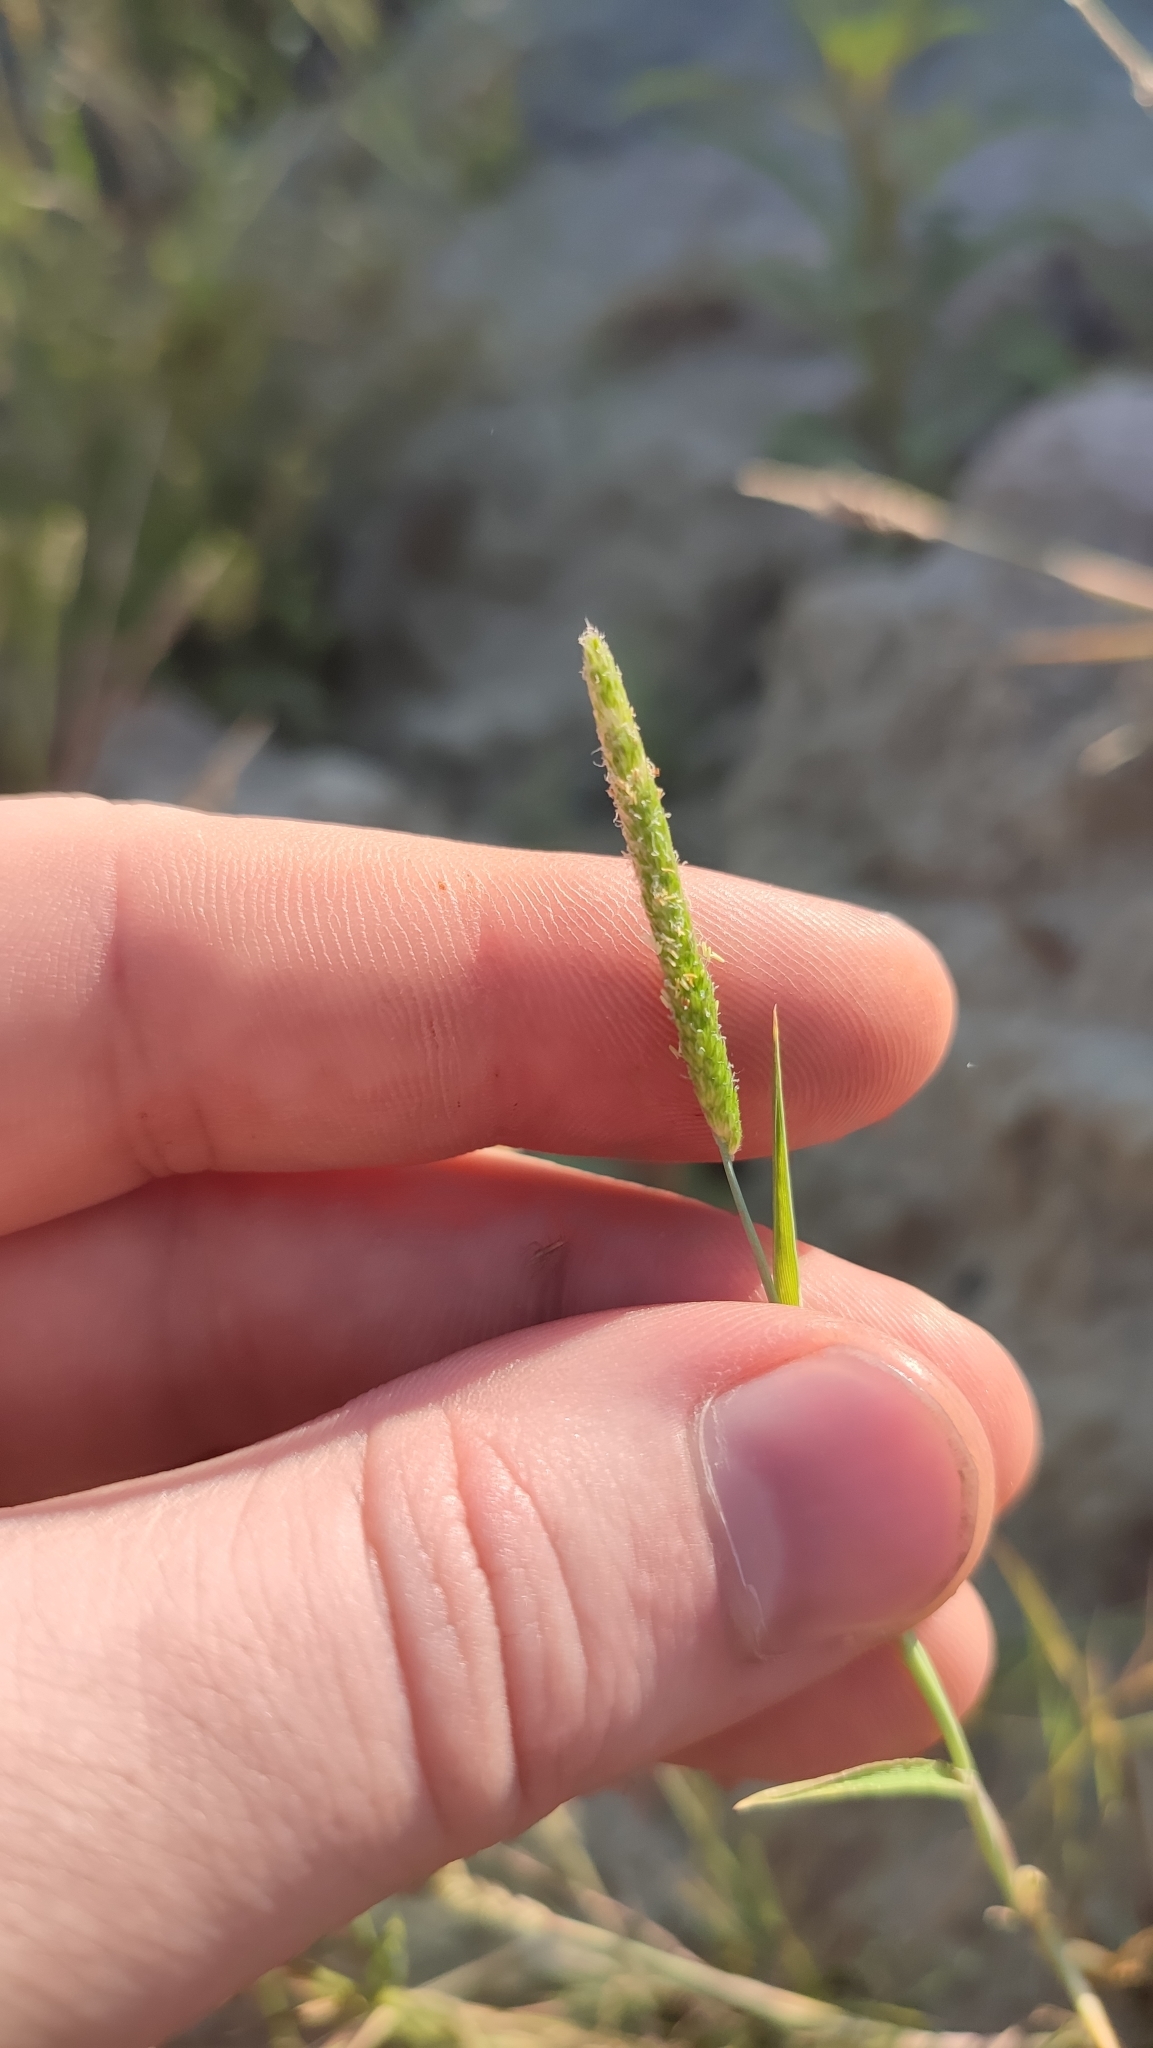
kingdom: Plantae
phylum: Tracheophyta
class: Liliopsida
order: Poales
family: Poaceae
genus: Alopecurus
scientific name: Alopecurus aequalis
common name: Orange foxtail
